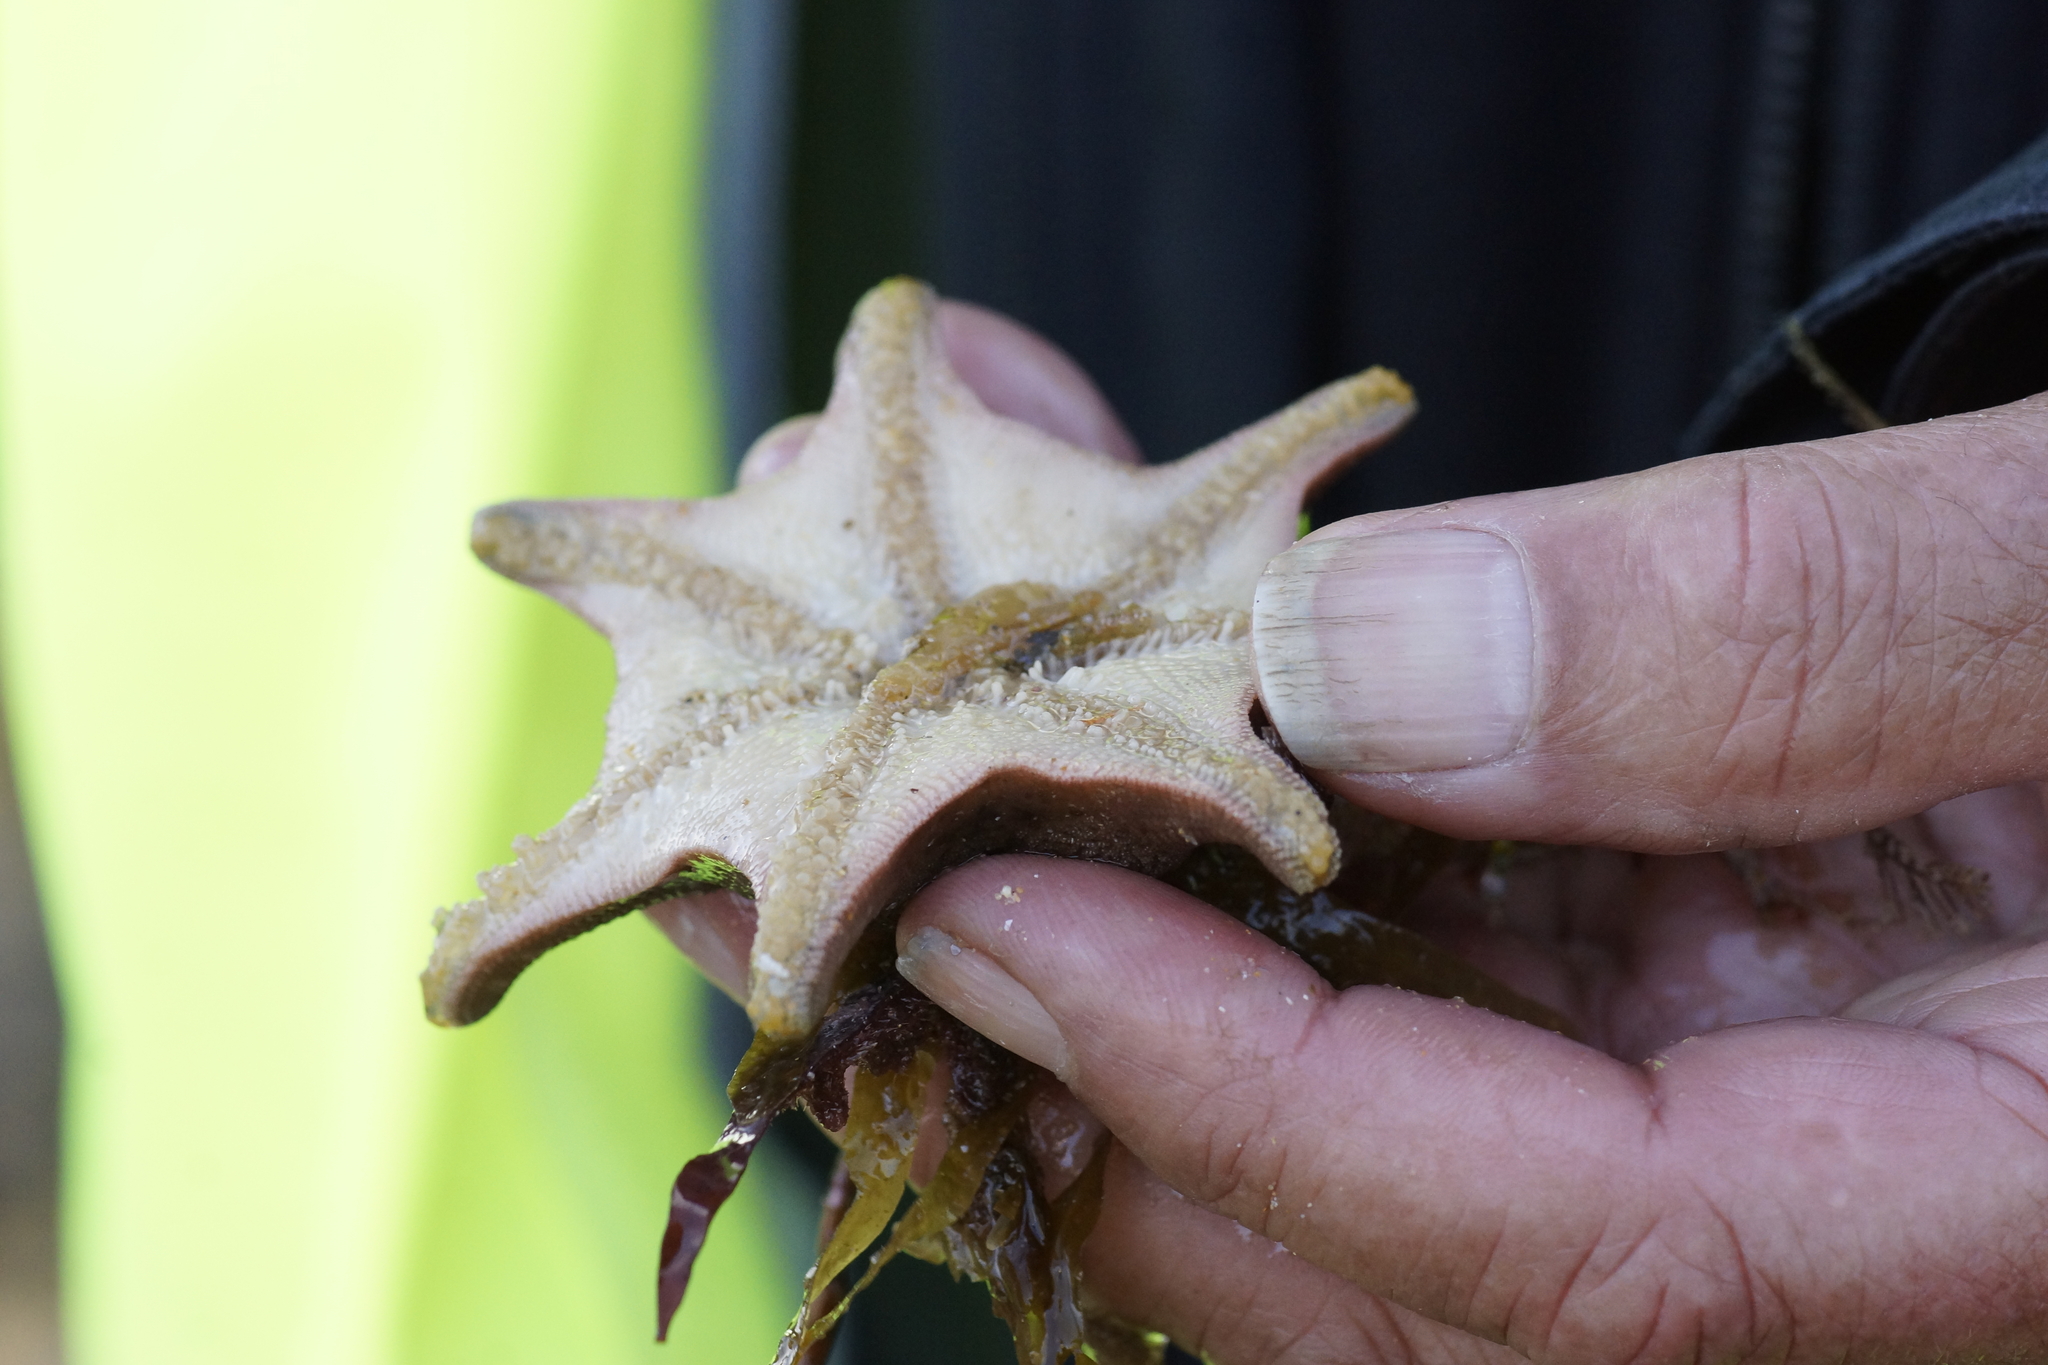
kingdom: Animalia
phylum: Echinodermata
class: Asteroidea
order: Valvatida
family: Asterinidae
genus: Meridiastra
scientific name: Meridiastra calcar
